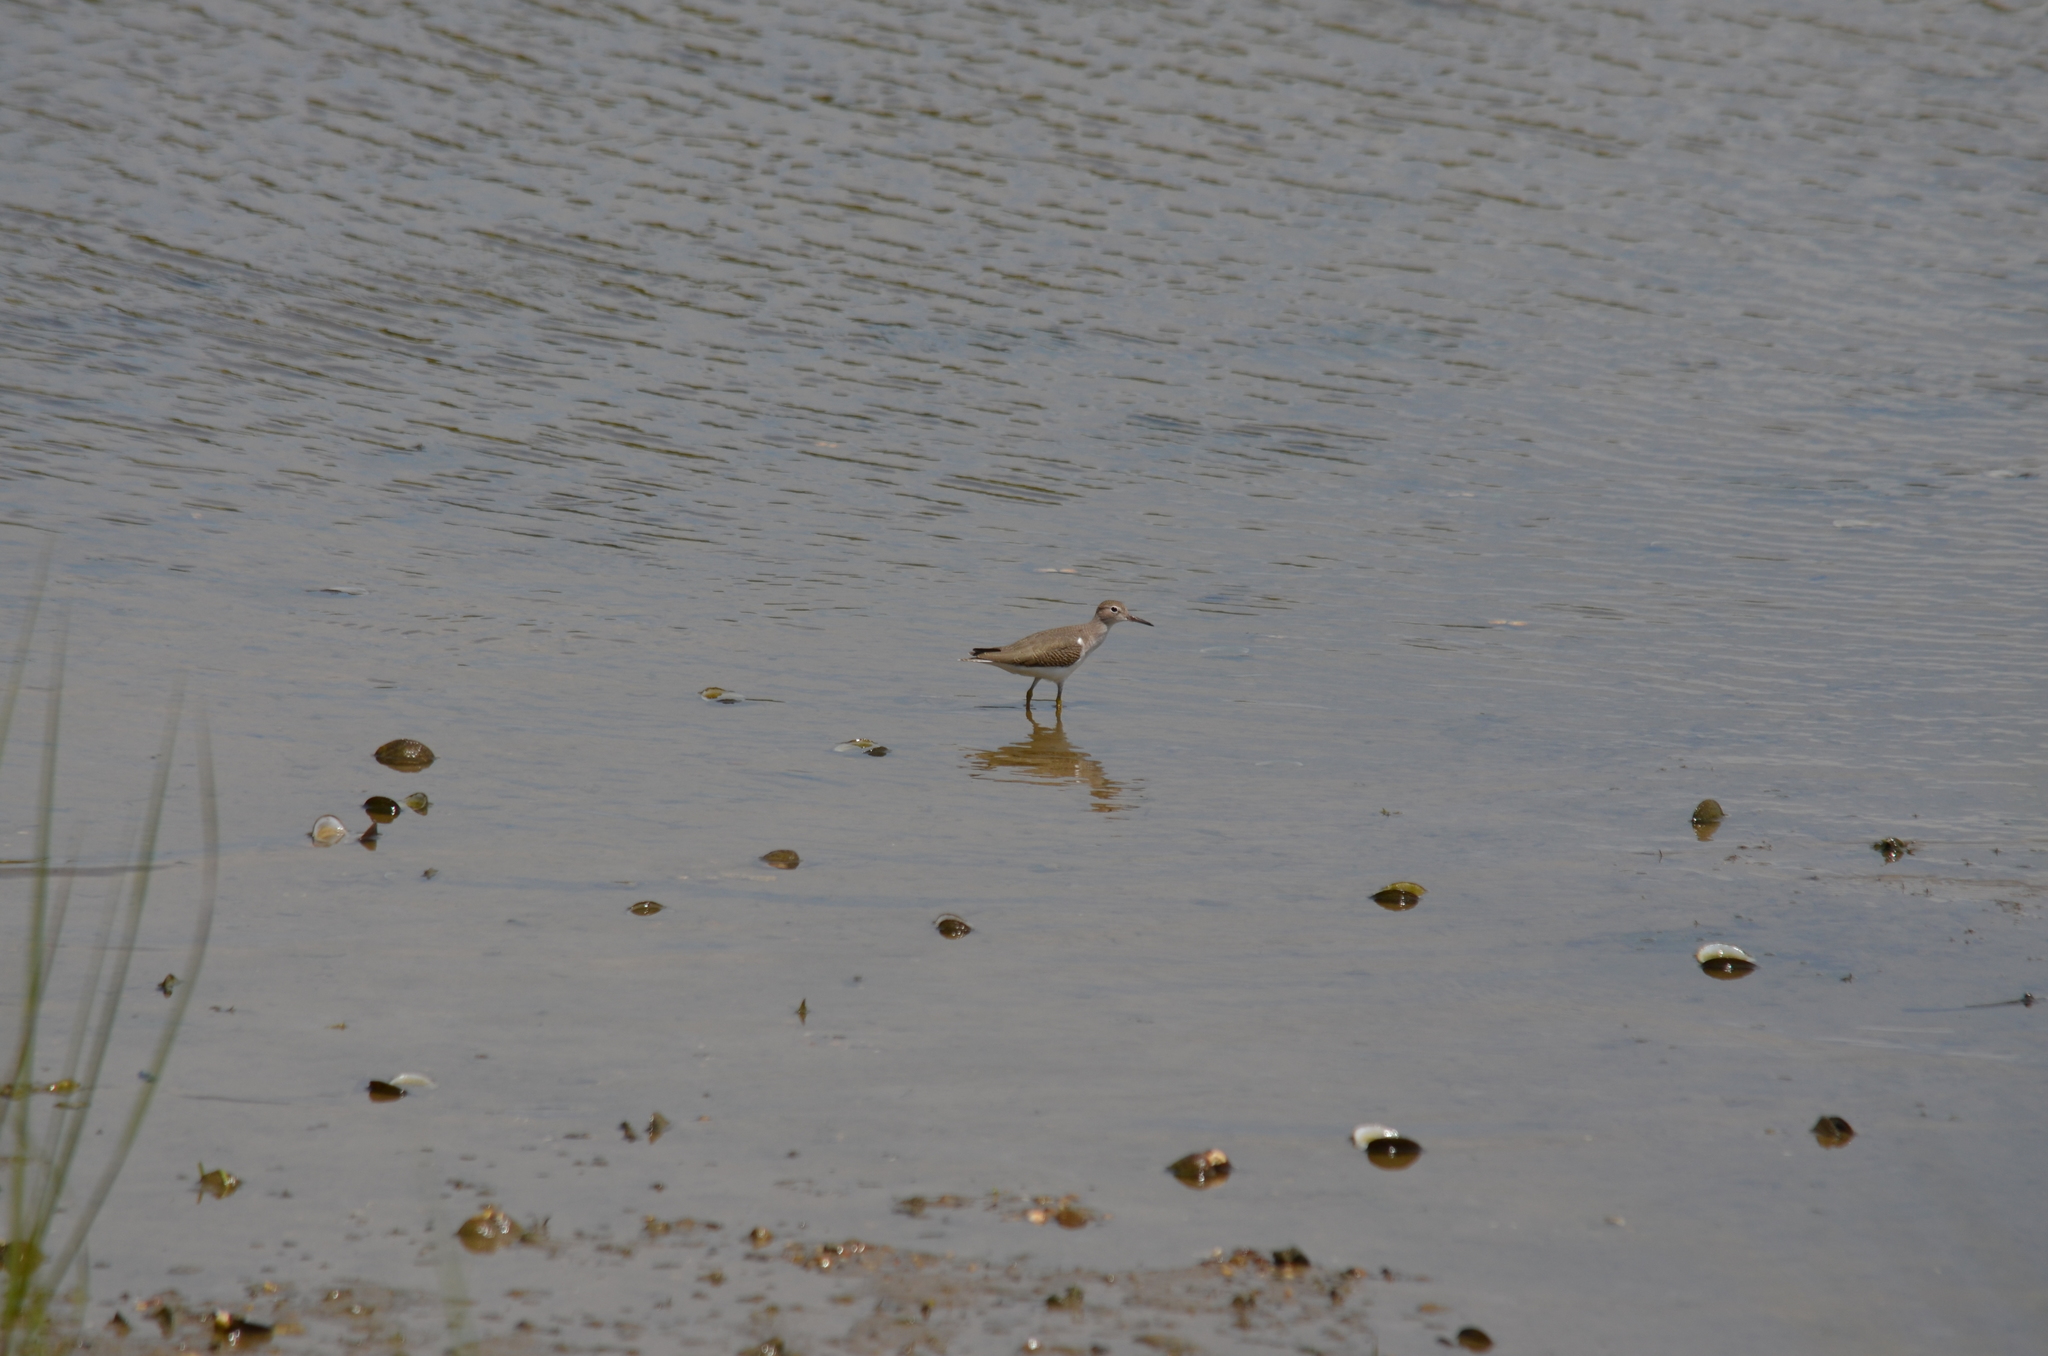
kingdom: Animalia
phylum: Chordata
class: Aves
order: Charadriiformes
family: Scolopacidae
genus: Actitis
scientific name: Actitis macularius
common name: Spotted sandpiper
